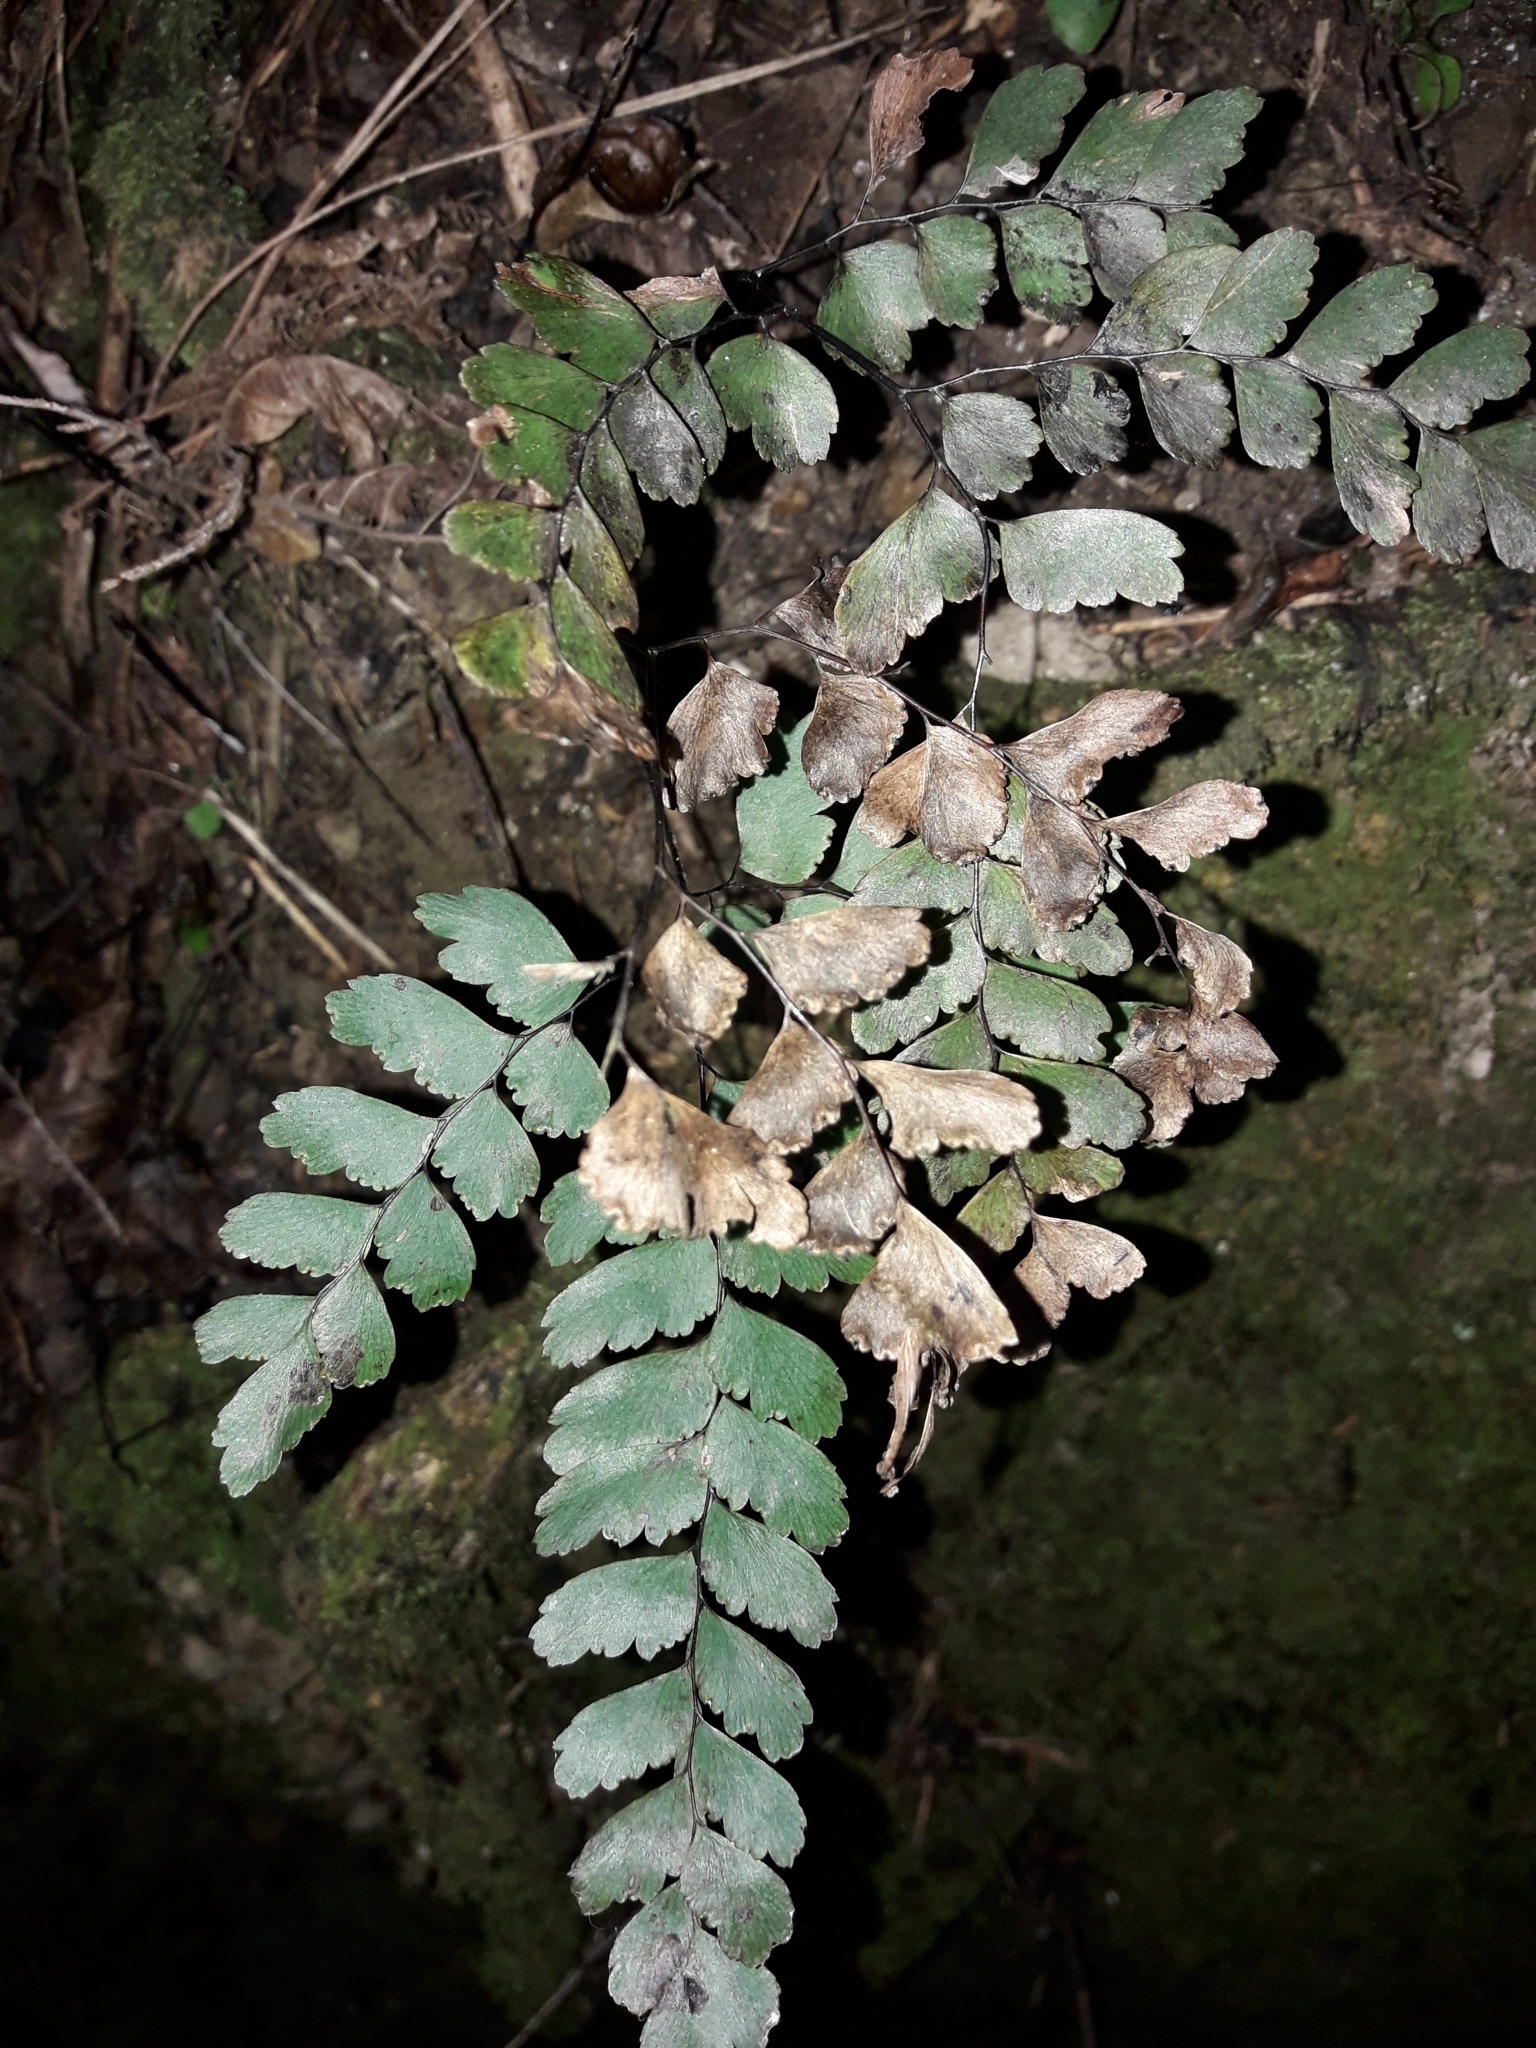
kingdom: Plantae
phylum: Tracheophyta
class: Polypodiopsida
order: Polypodiales
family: Pteridaceae
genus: Adiantum
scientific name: Adiantum cunninghamii
